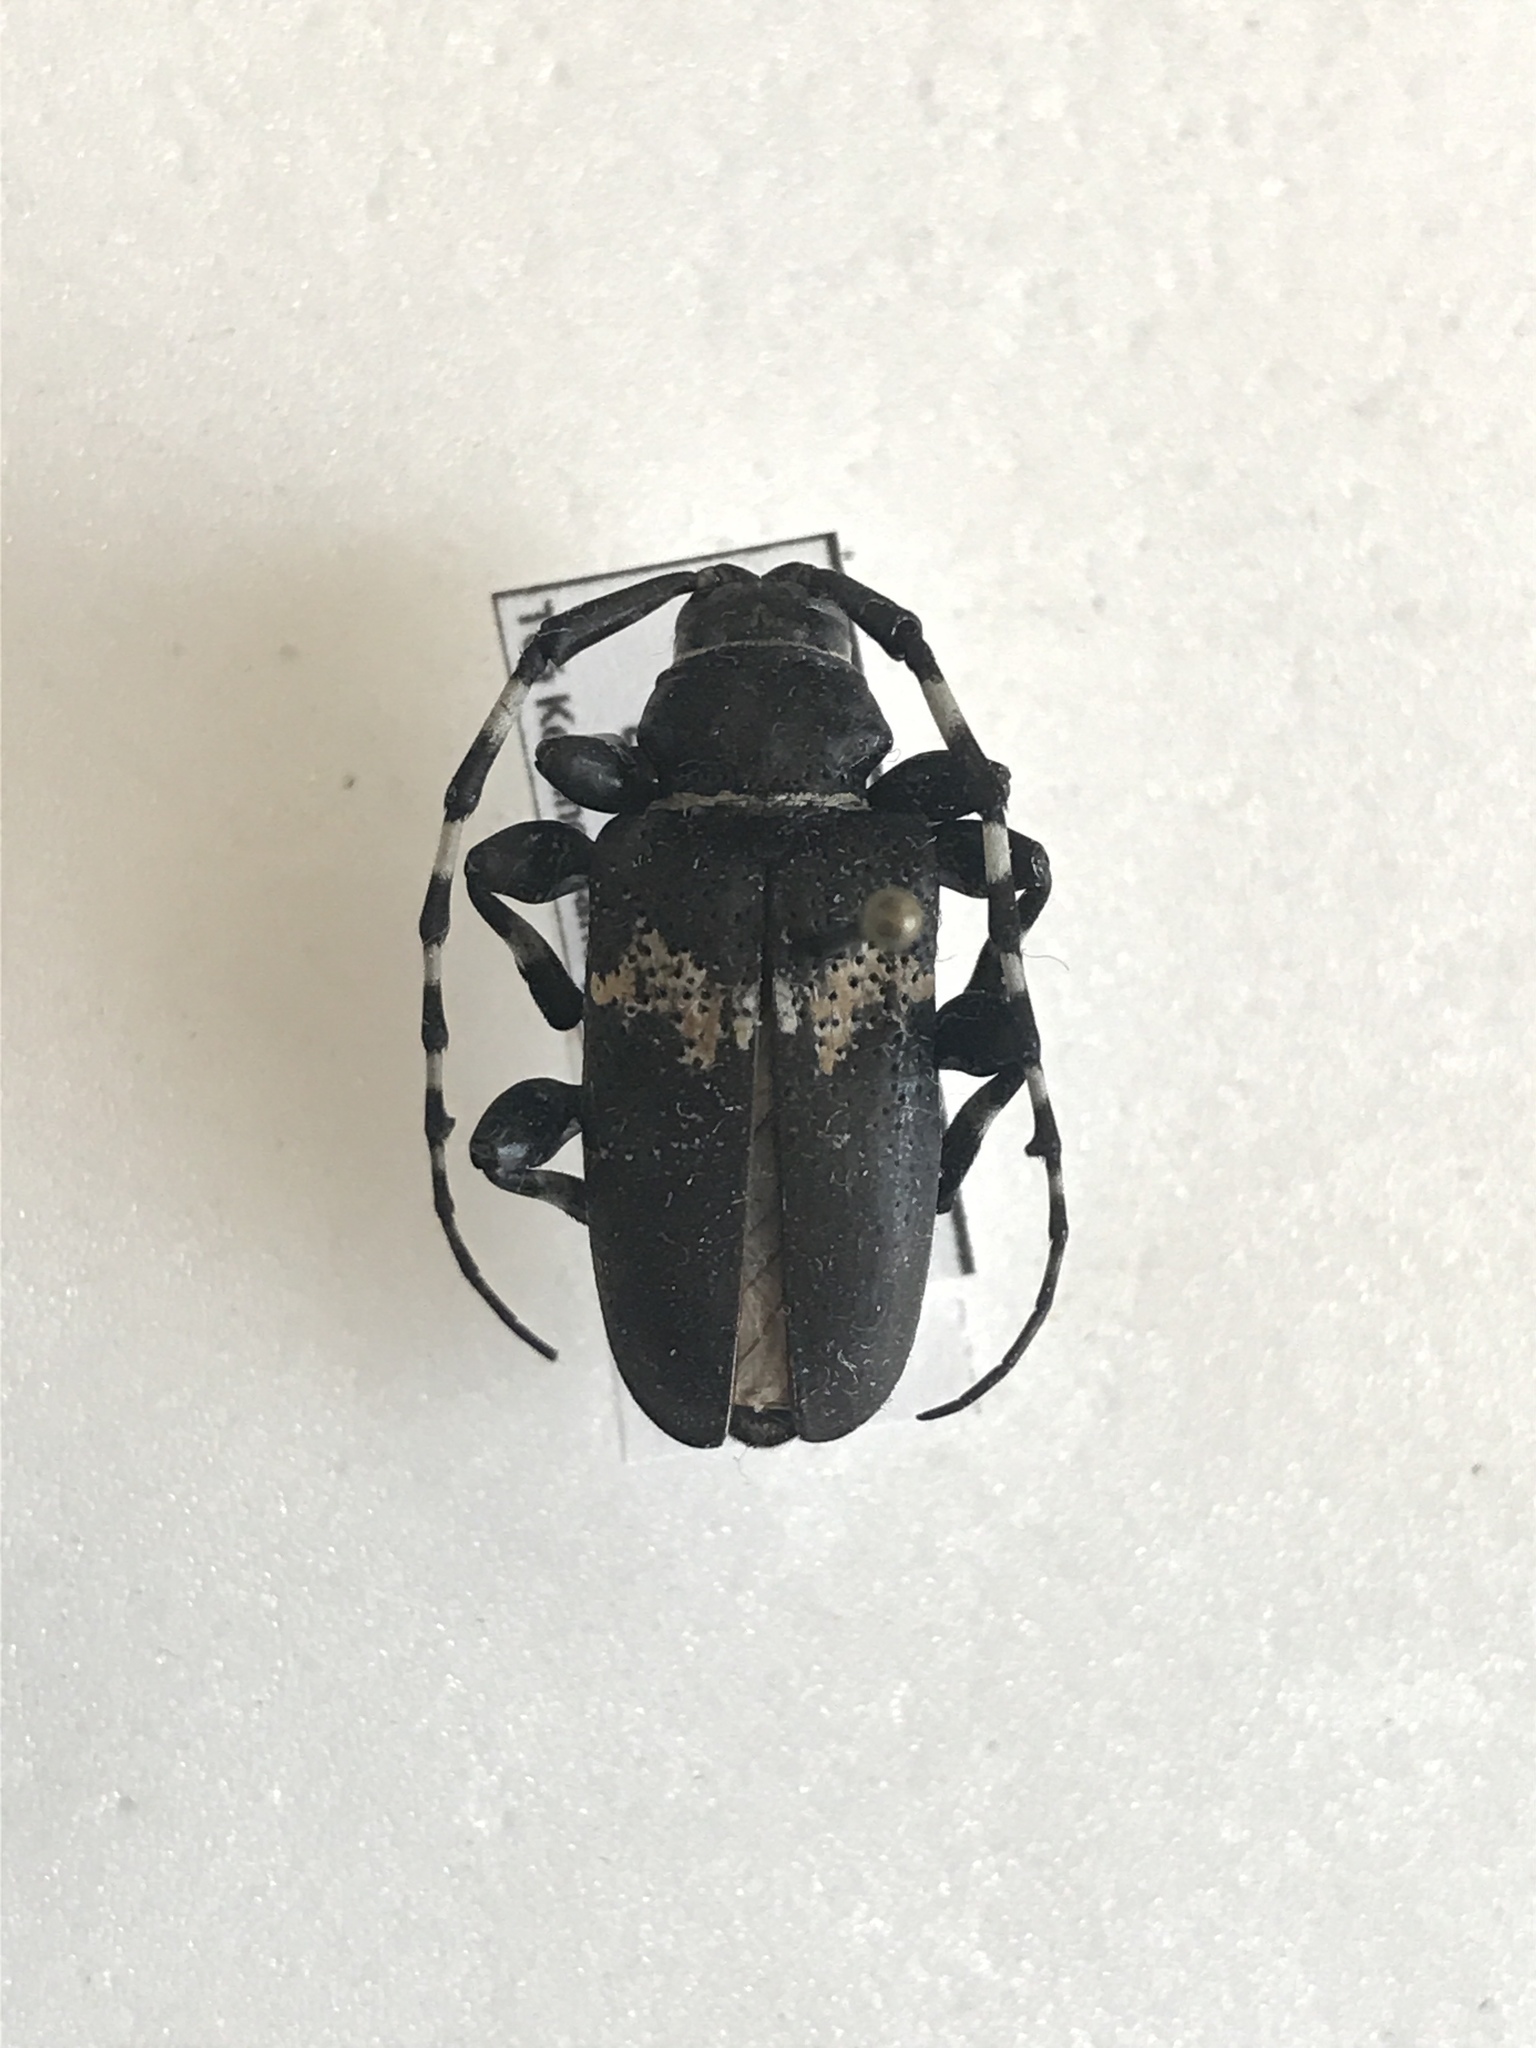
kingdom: Animalia
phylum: Arthropoda
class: Insecta
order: Coleoptera
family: Cerambycidae
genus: Coenopoeus
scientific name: Coenopoeus palmeri
